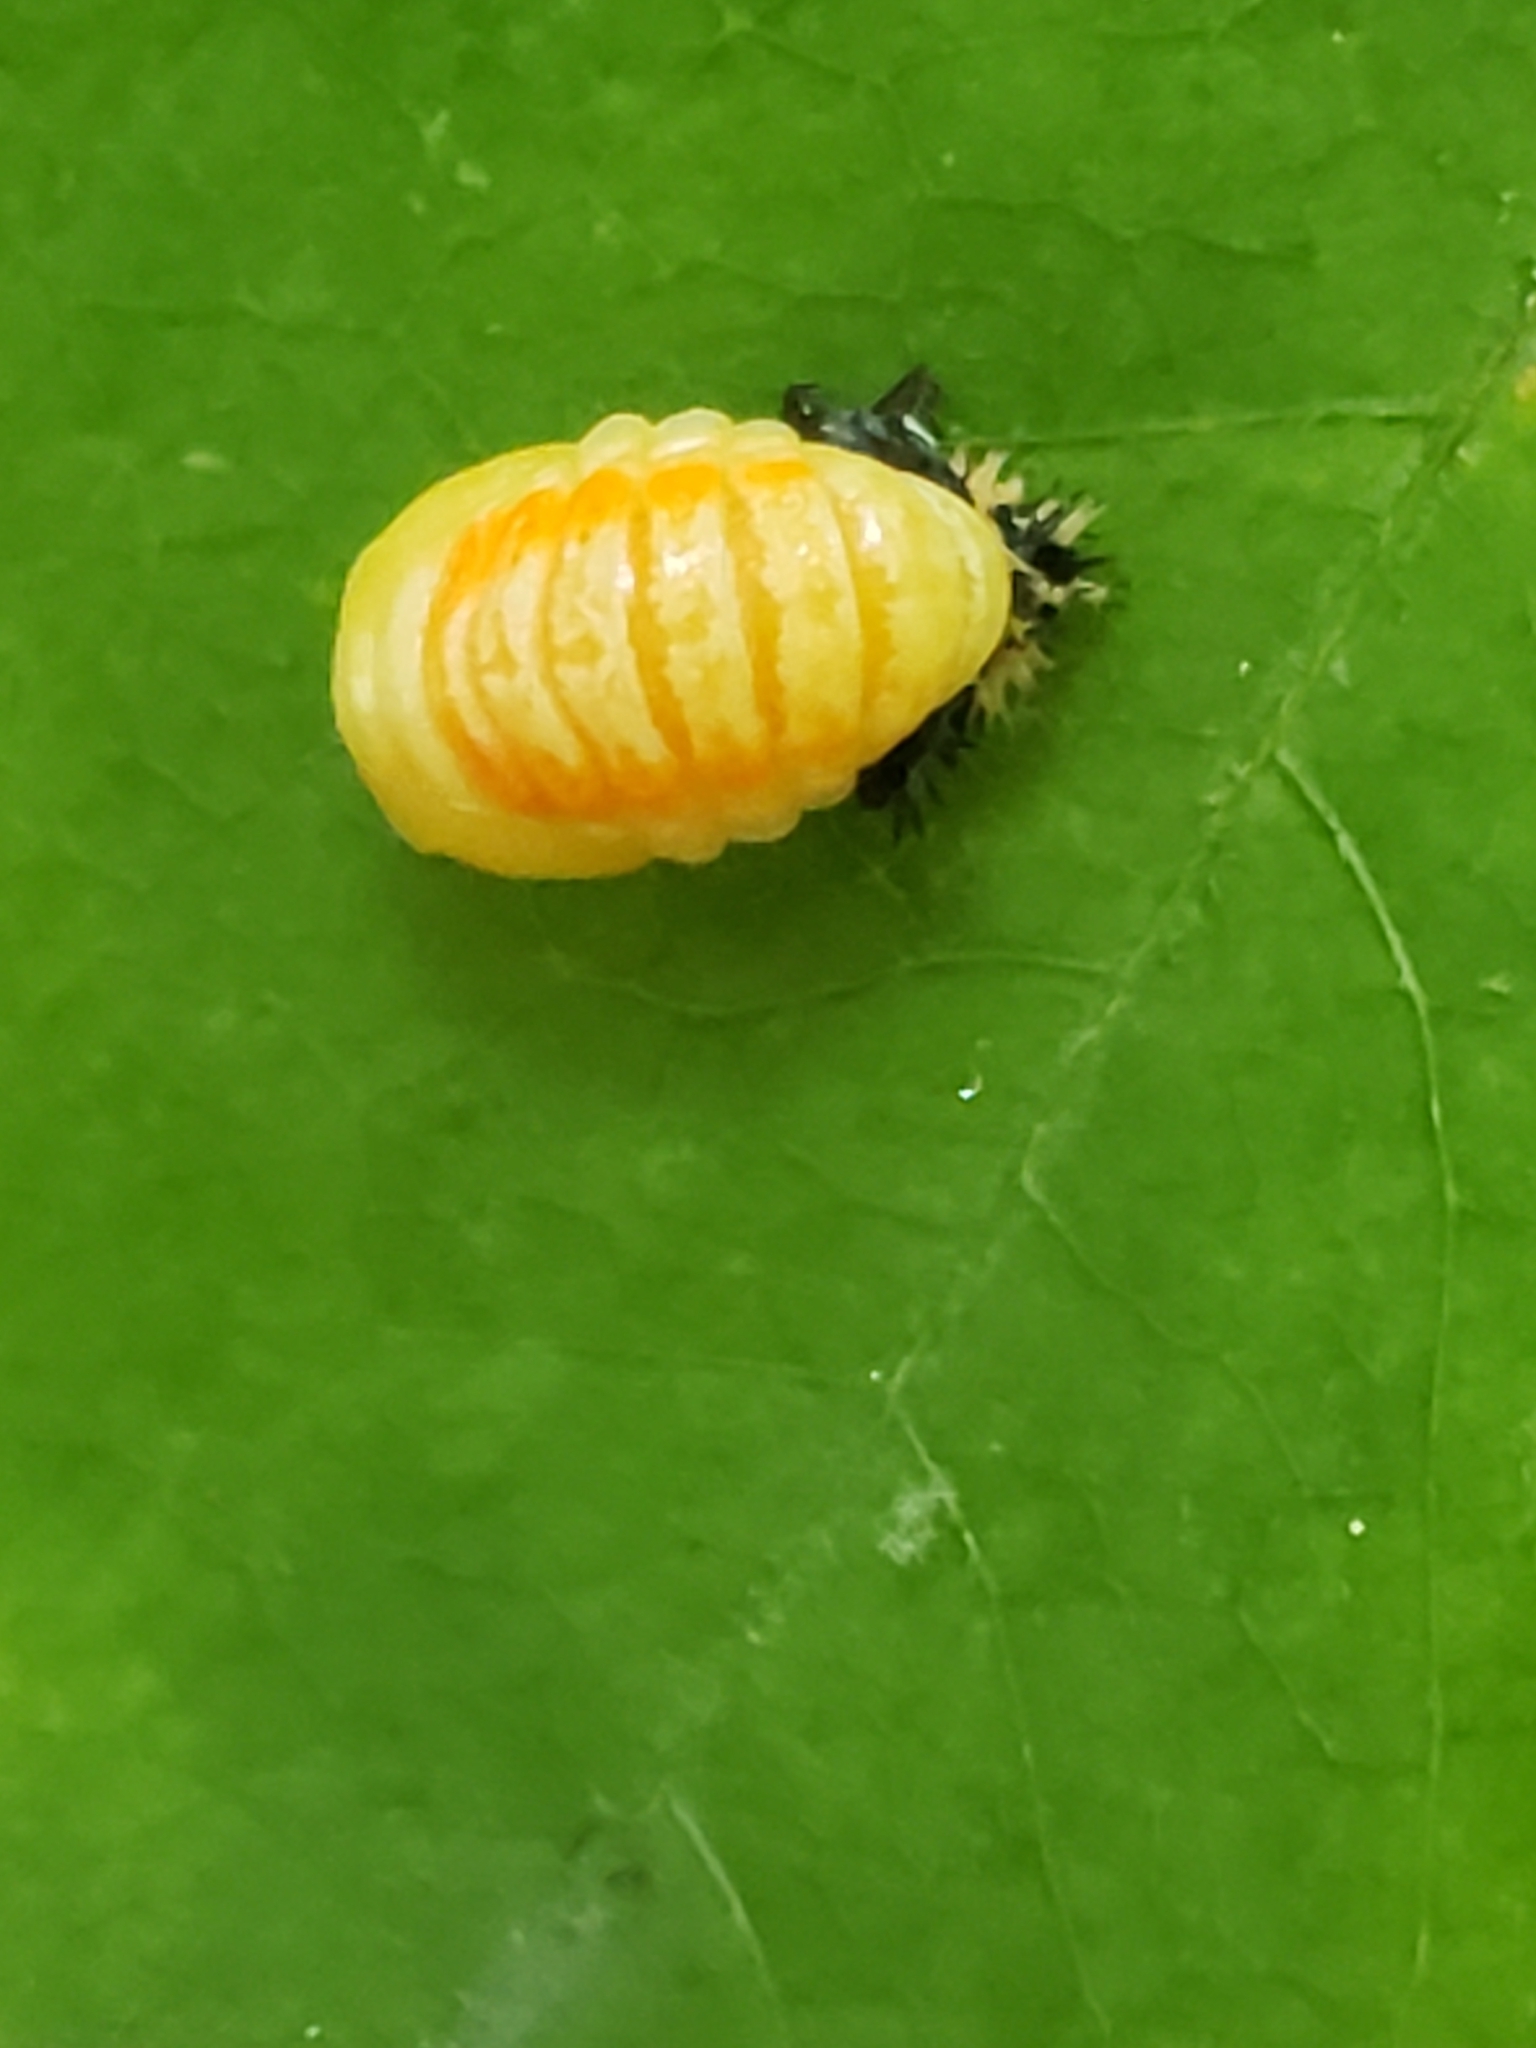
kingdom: Animalia
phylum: Arthropoda
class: Insecta
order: Coleoptera
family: Coccinellidae
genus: Harmonia
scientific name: Harmonia axyridis
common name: Harlequin ladybird
